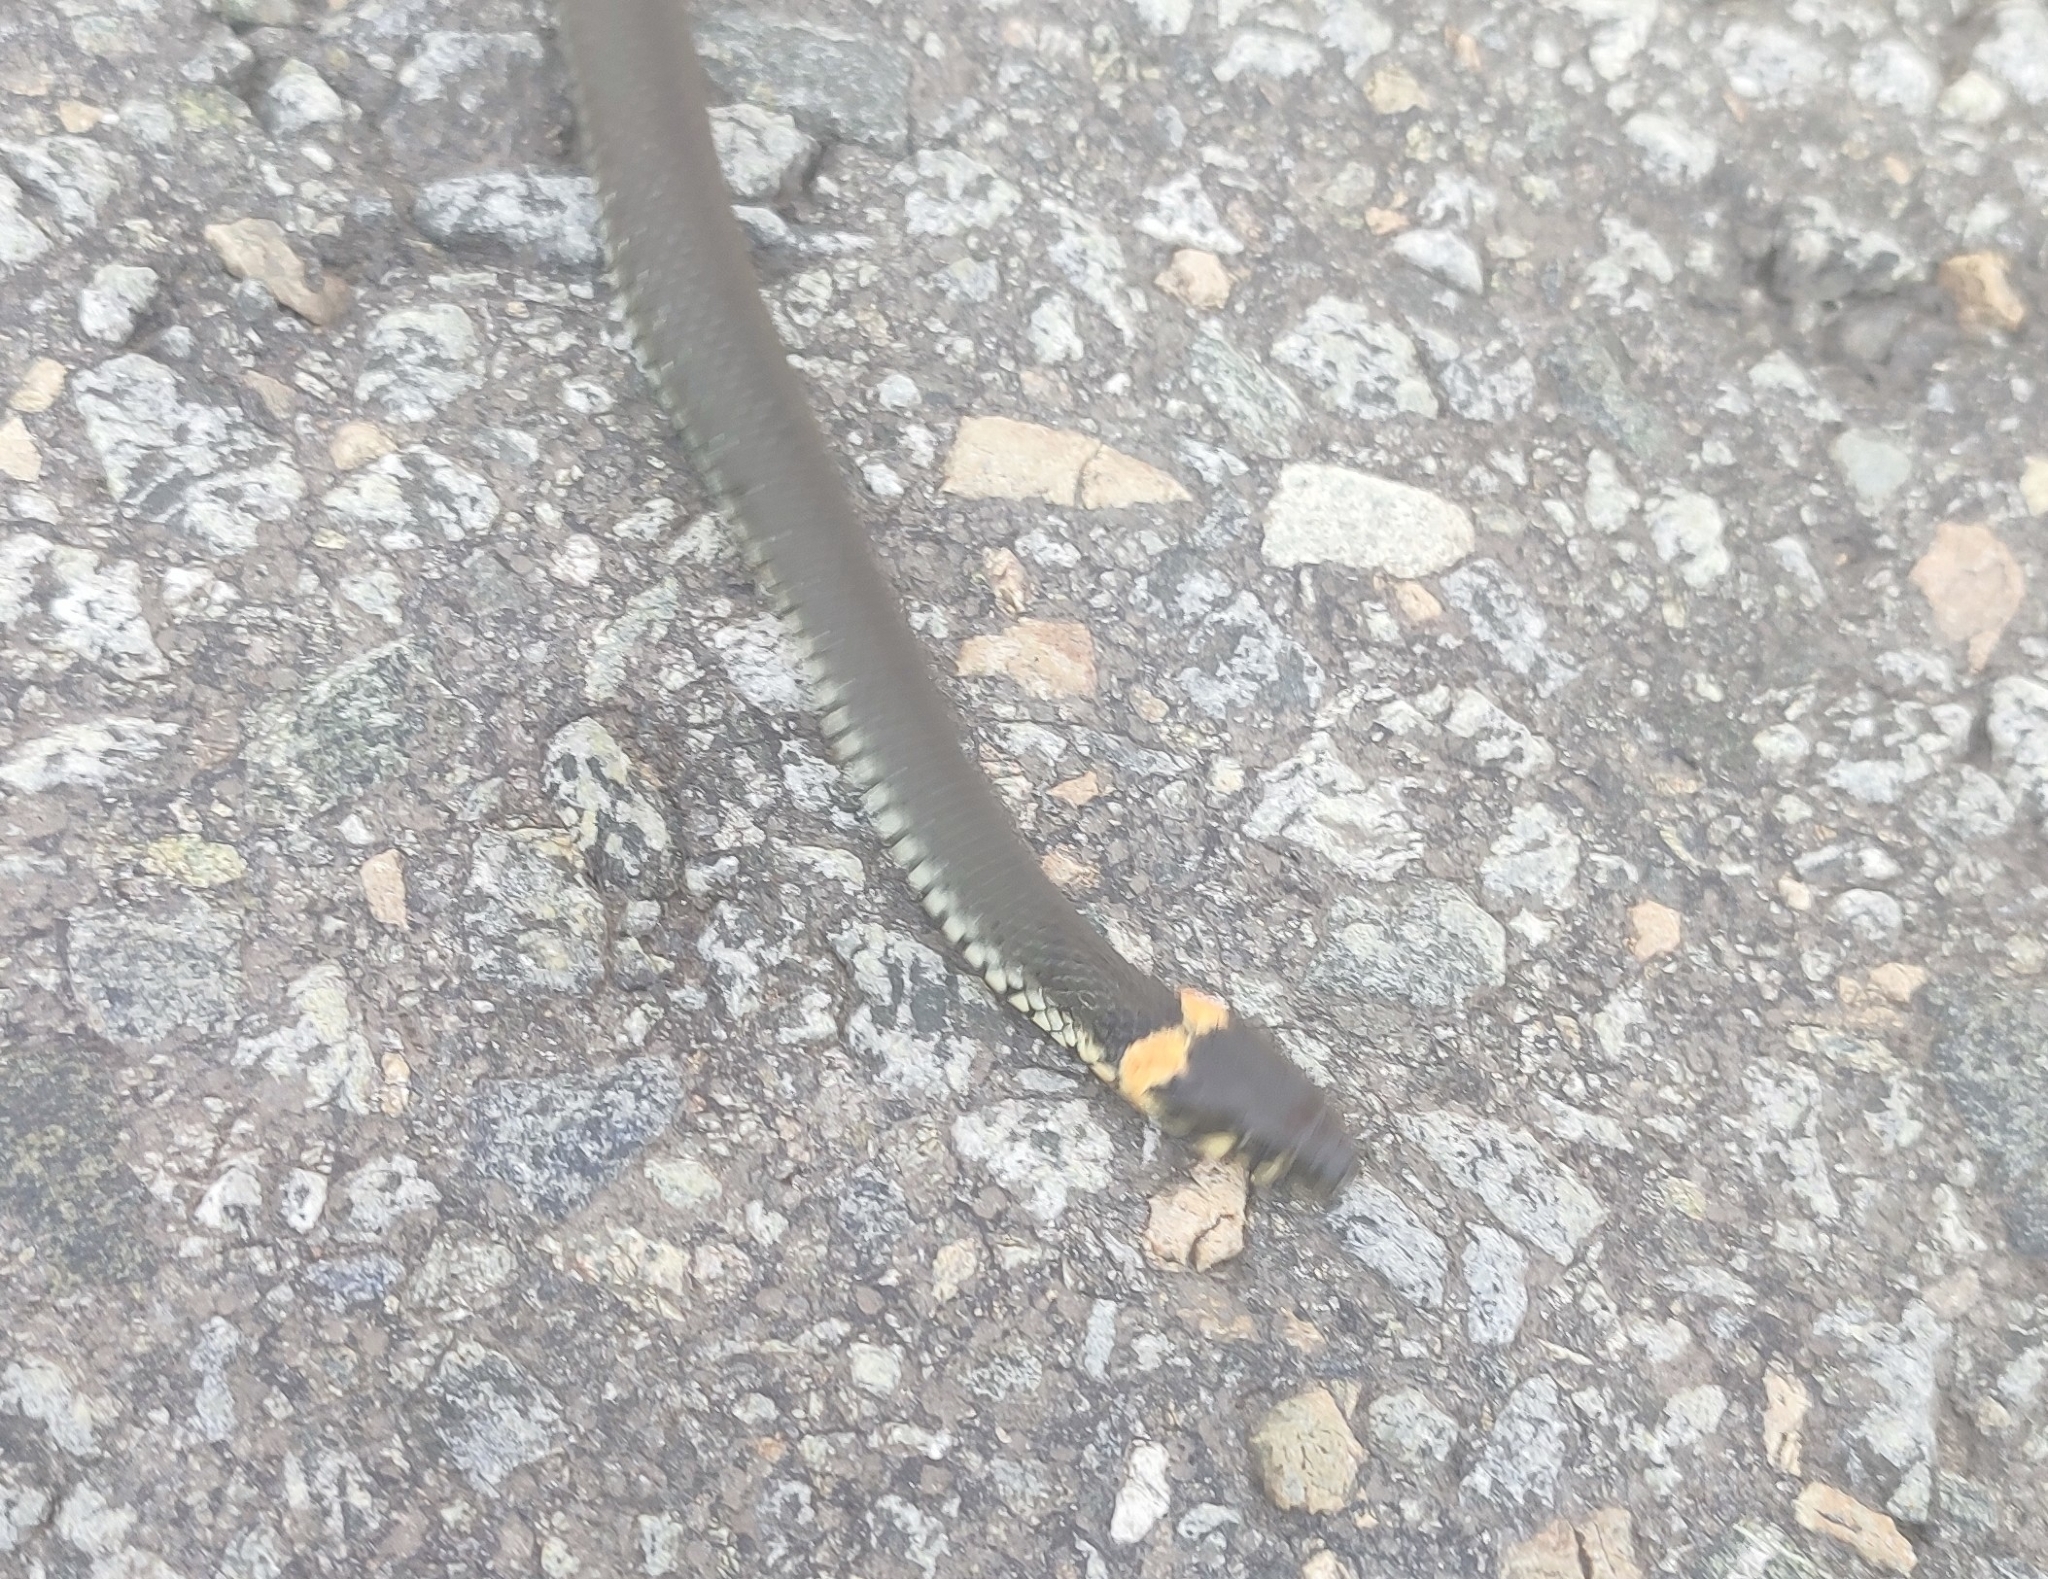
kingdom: Animalia
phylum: Chordata
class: Squamata
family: Colubridae
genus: Natrix
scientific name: Natrix natrix
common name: Grass snake
